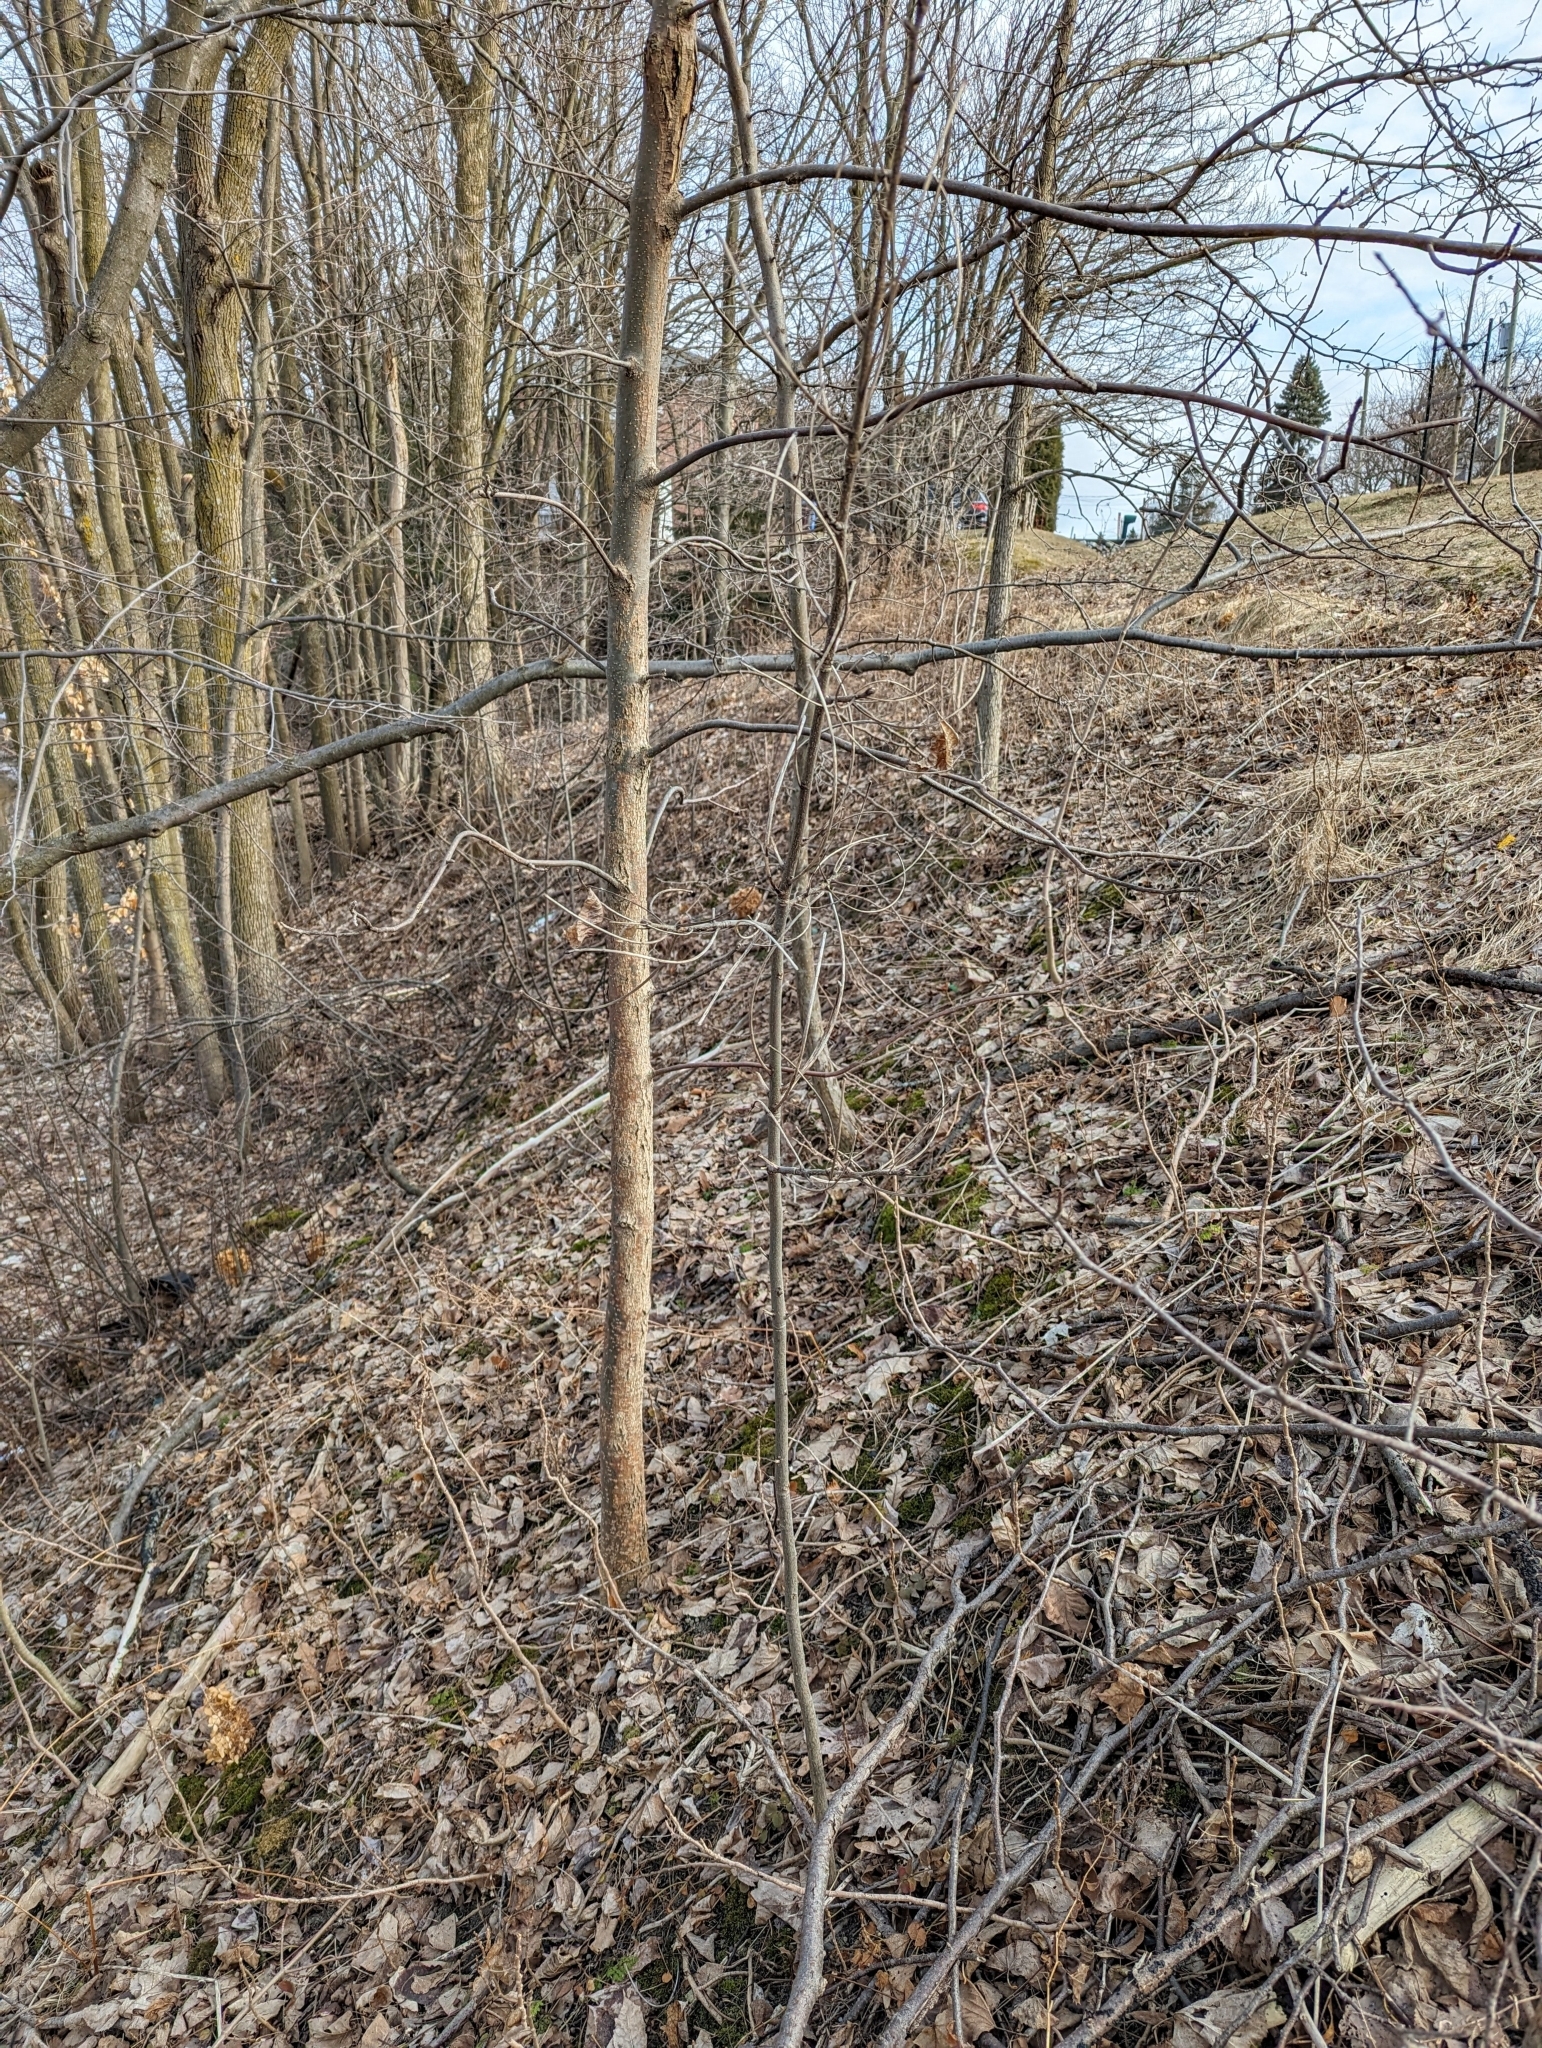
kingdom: Plantae
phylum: Tracheophyta
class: Magnoliopsida
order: Fagales
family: Juglandaceae
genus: Carya
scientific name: Carya ovata
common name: Shagbark hickory
